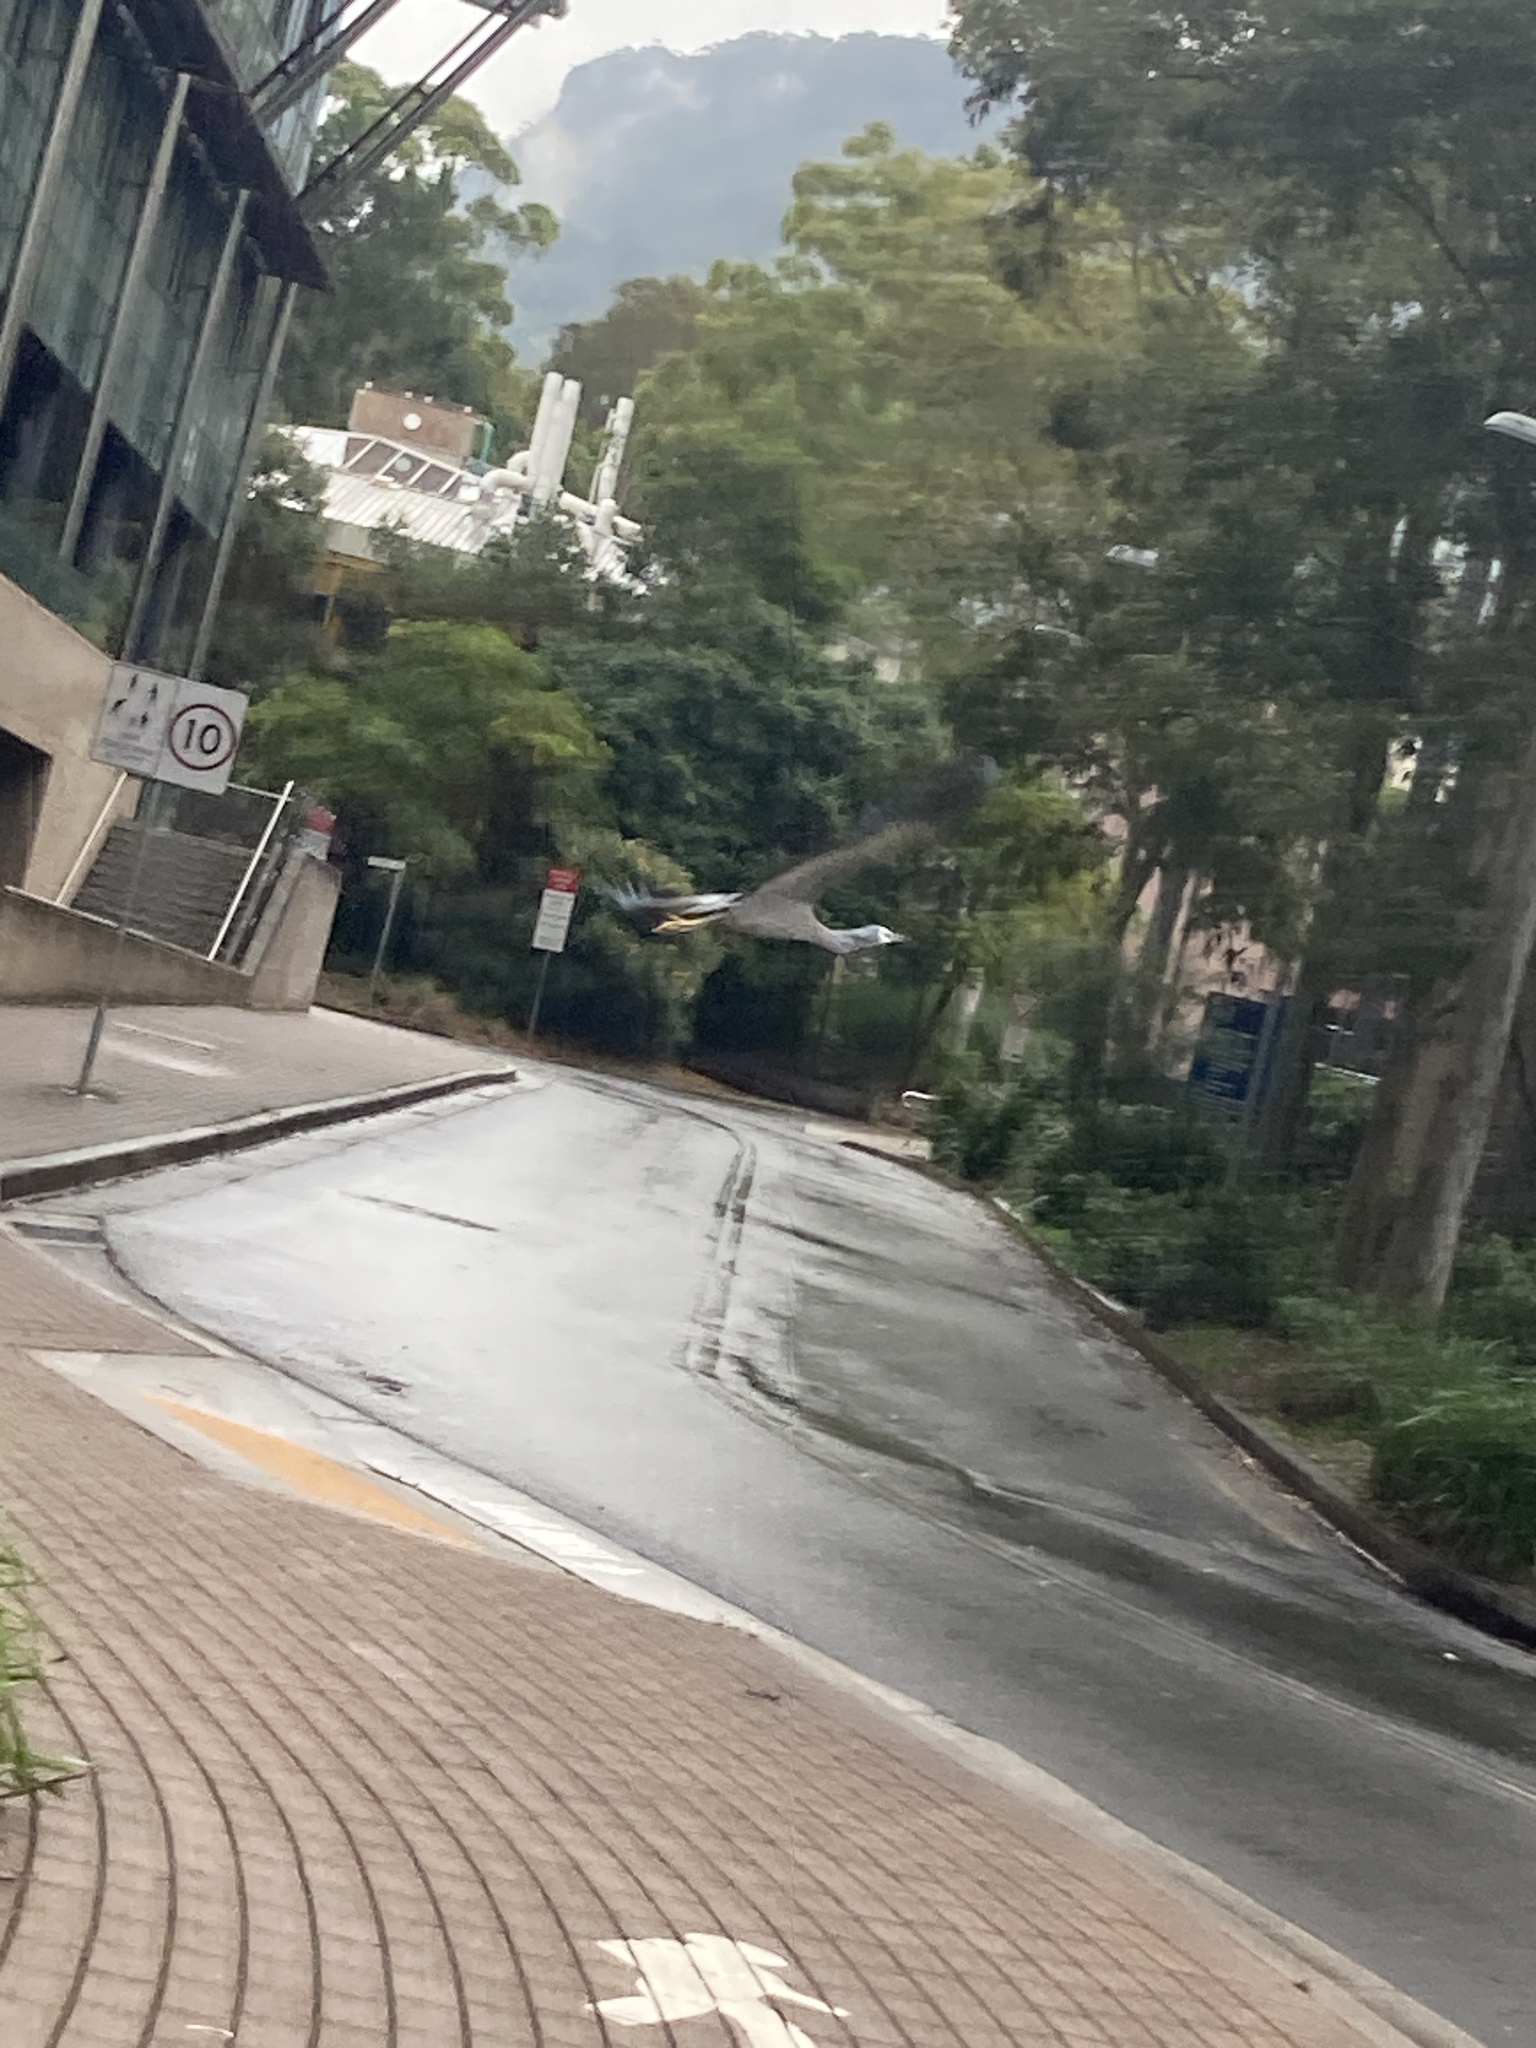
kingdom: Animalia
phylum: Chordata
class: Aves
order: Pelecaniformes
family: Ardeidae
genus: Egretta
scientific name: Egretta novaehollandiae
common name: White-faced heron
